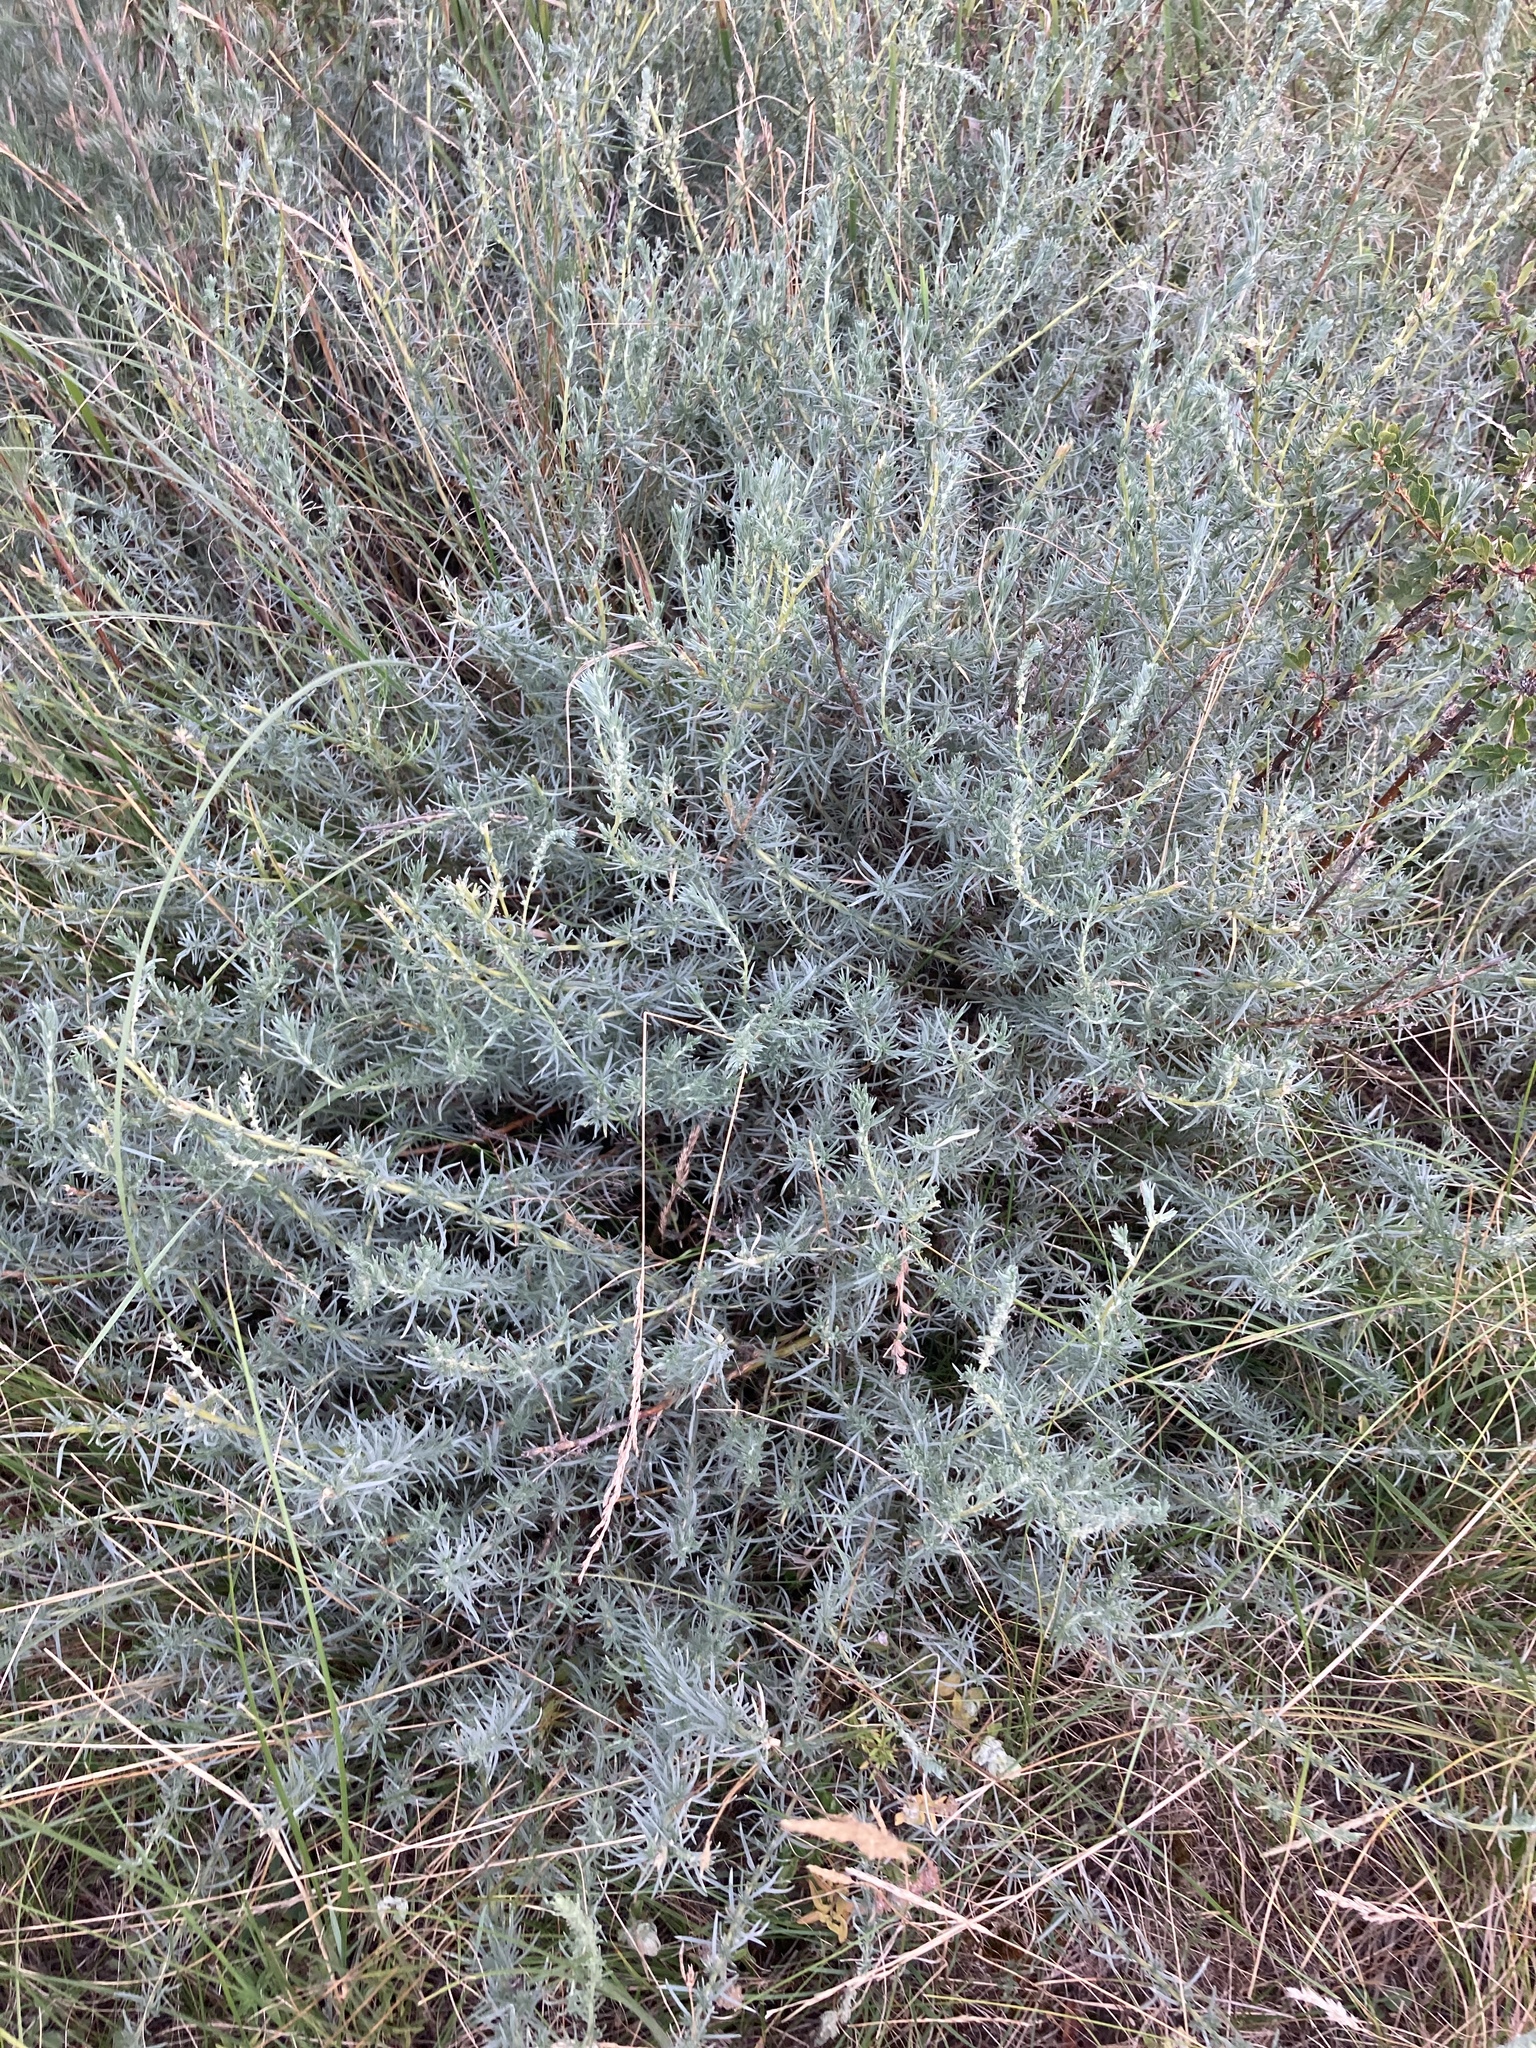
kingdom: Plantae
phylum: Tracheophyta
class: Magnoliopsida
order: Caryophyllales
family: Amaranthaceae
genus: Bassia
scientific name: Bassia prostrata
